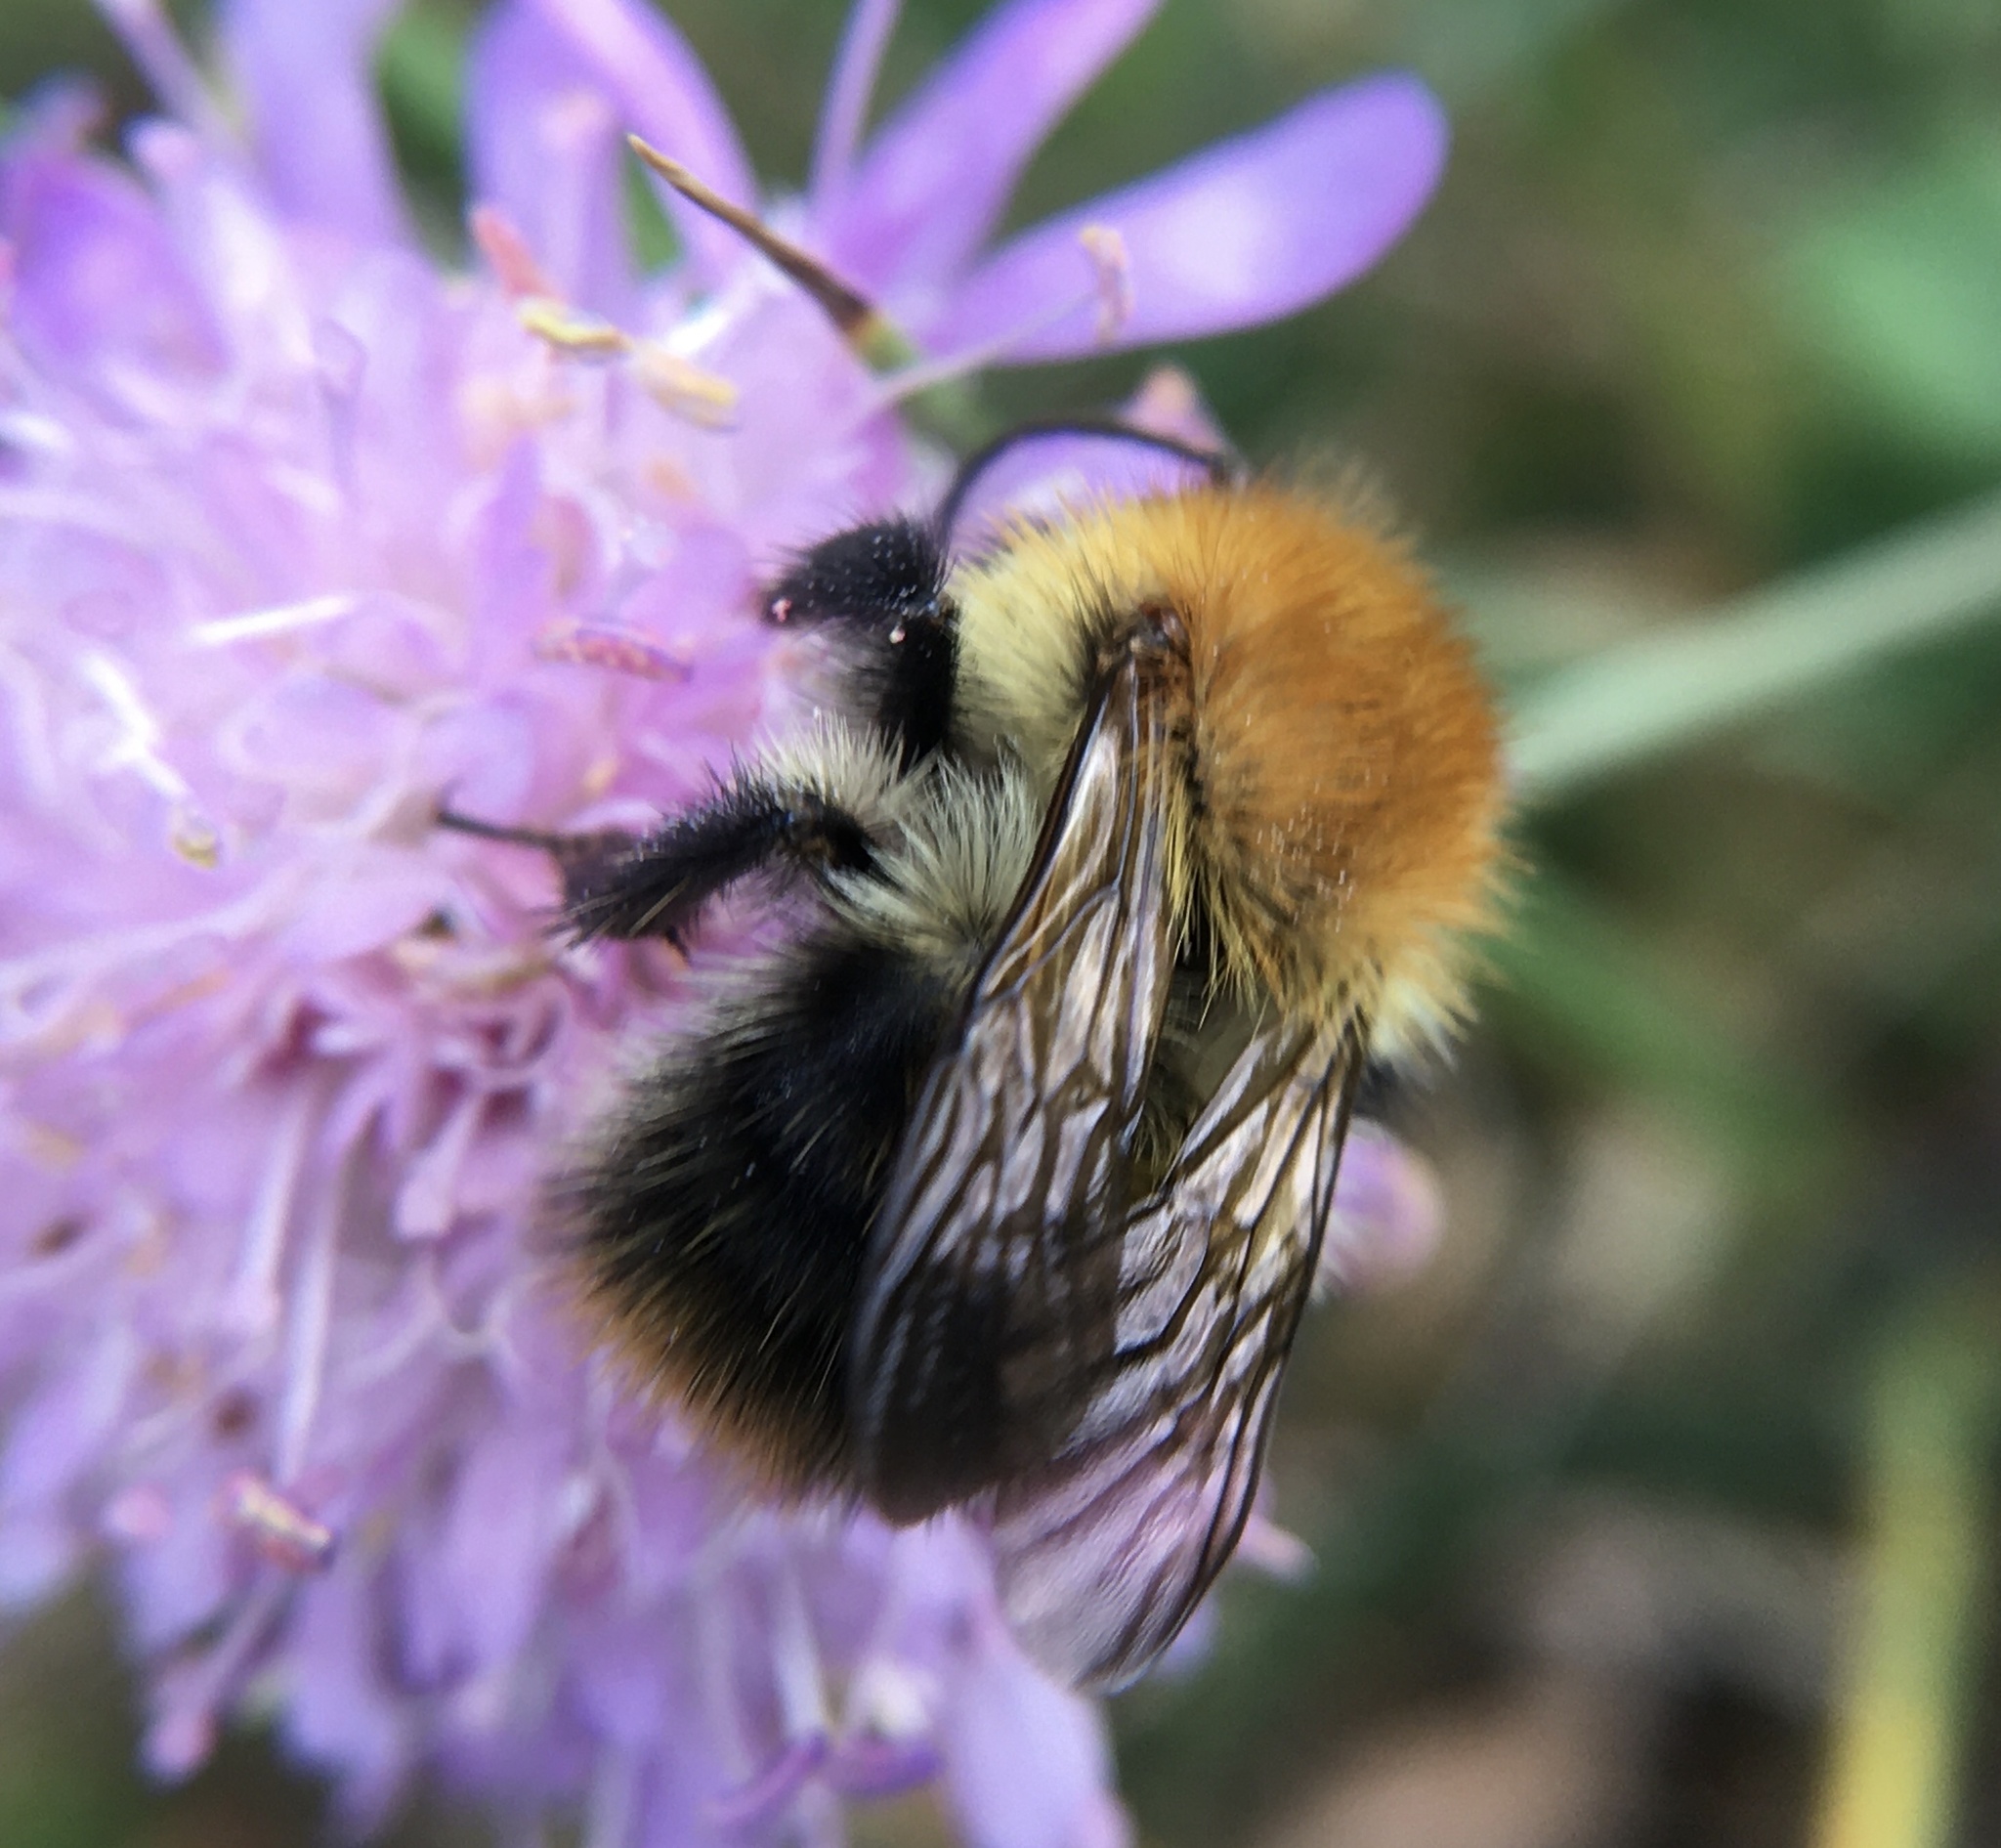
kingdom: Animalia
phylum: Arthropoda
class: Insecta
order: Hymenoptera
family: Apidae
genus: Bombus
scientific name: Bombus pascuorum
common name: Common carder bee
